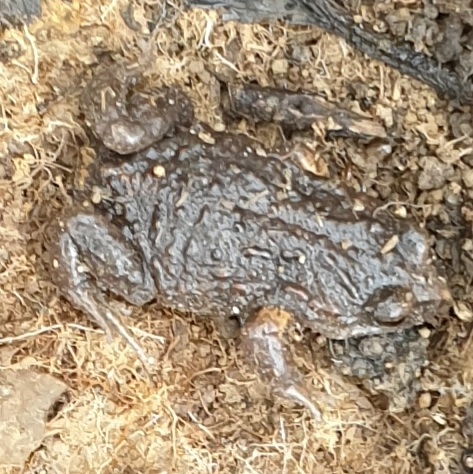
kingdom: Animalia
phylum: Chordata
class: Amphibia
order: Anura
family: Myobatrachidae
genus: Pseudophryne
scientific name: Pseudophryne bibronii
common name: Bibron’s toadlet
